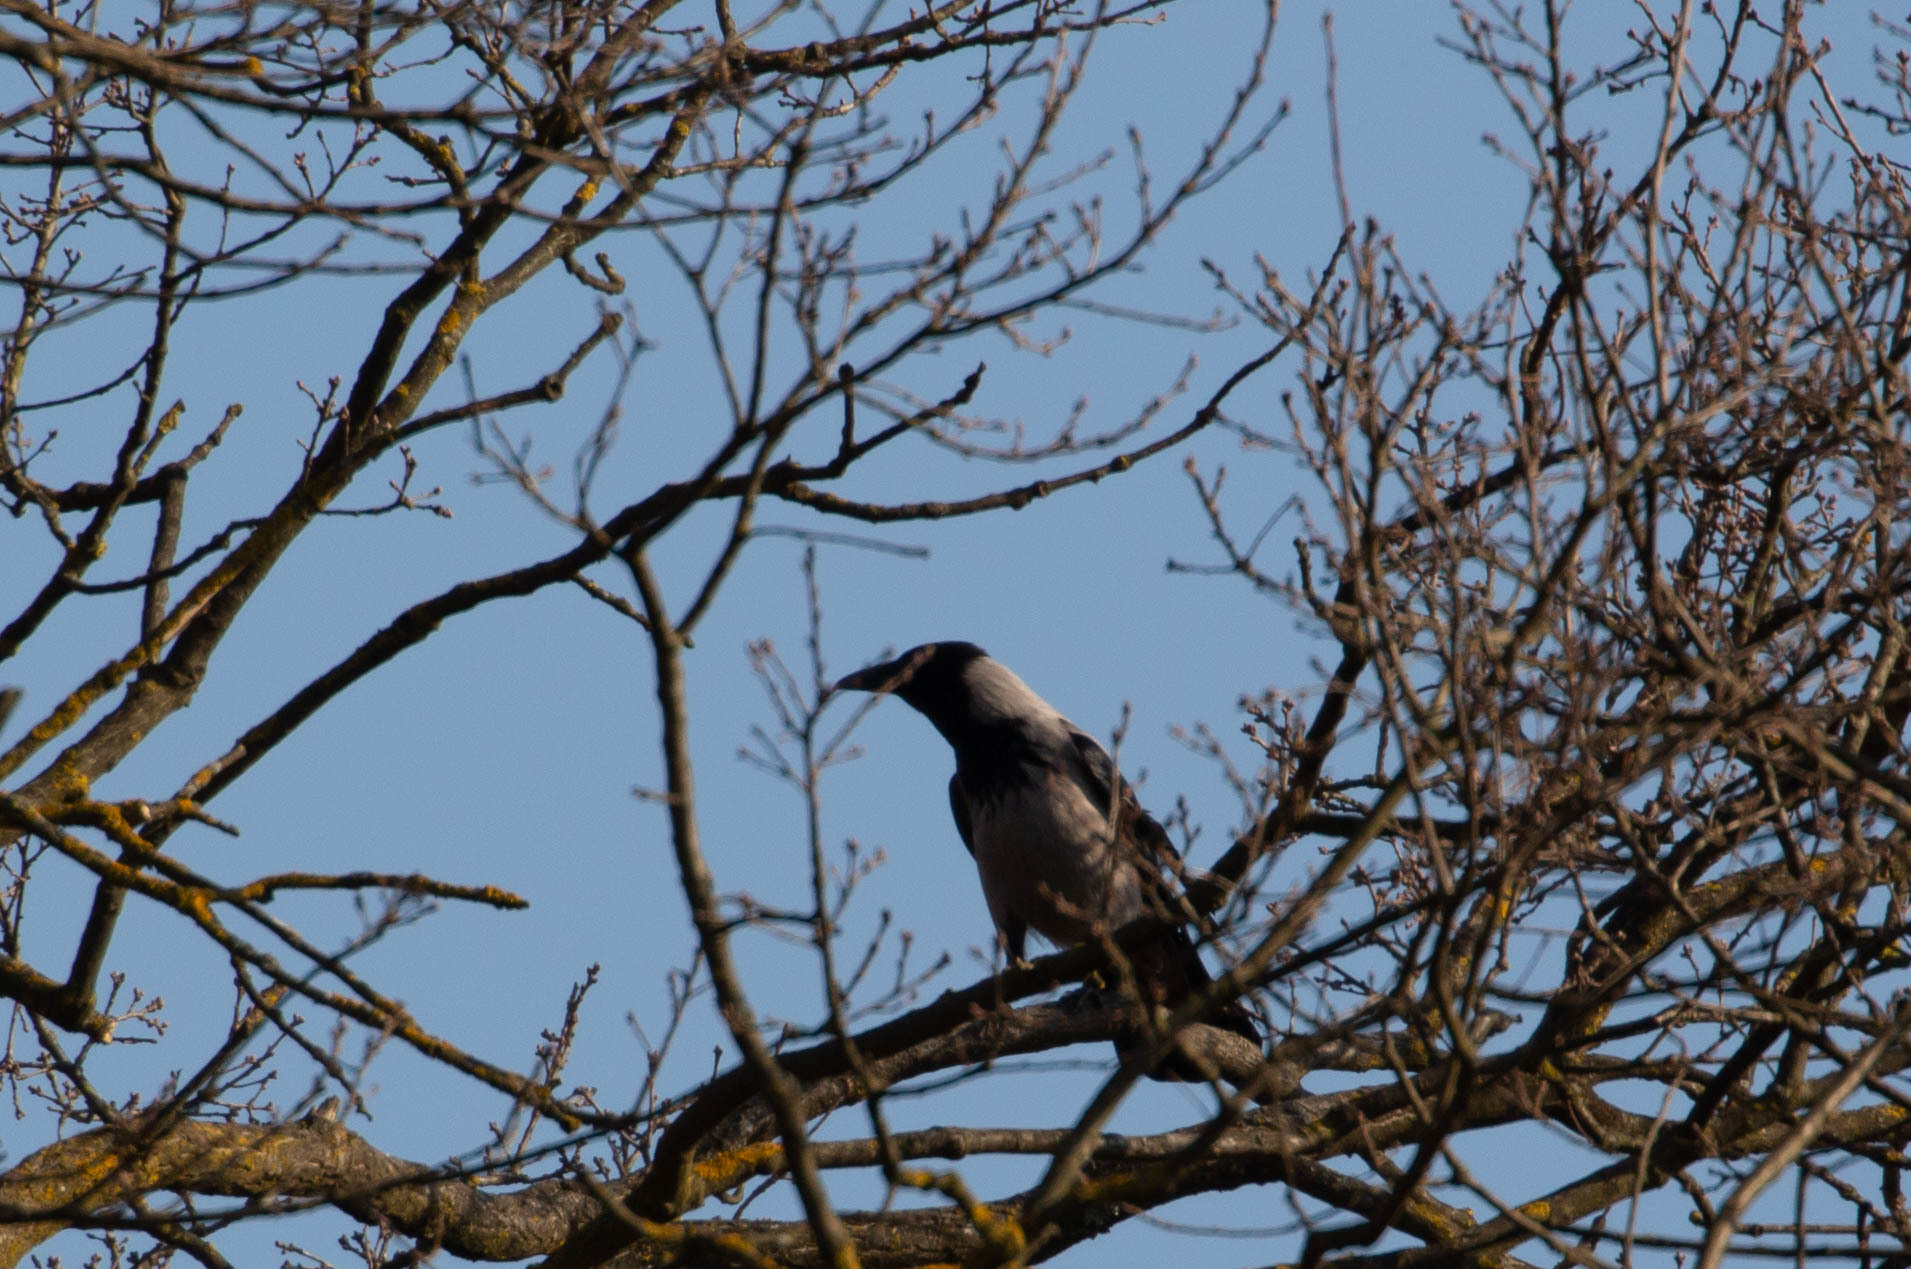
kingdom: Animalia
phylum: Chordata
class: Aves
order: Passeriformes
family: Corvidae
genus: Corvus
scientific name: Corvus cornix
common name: Hooded crow
